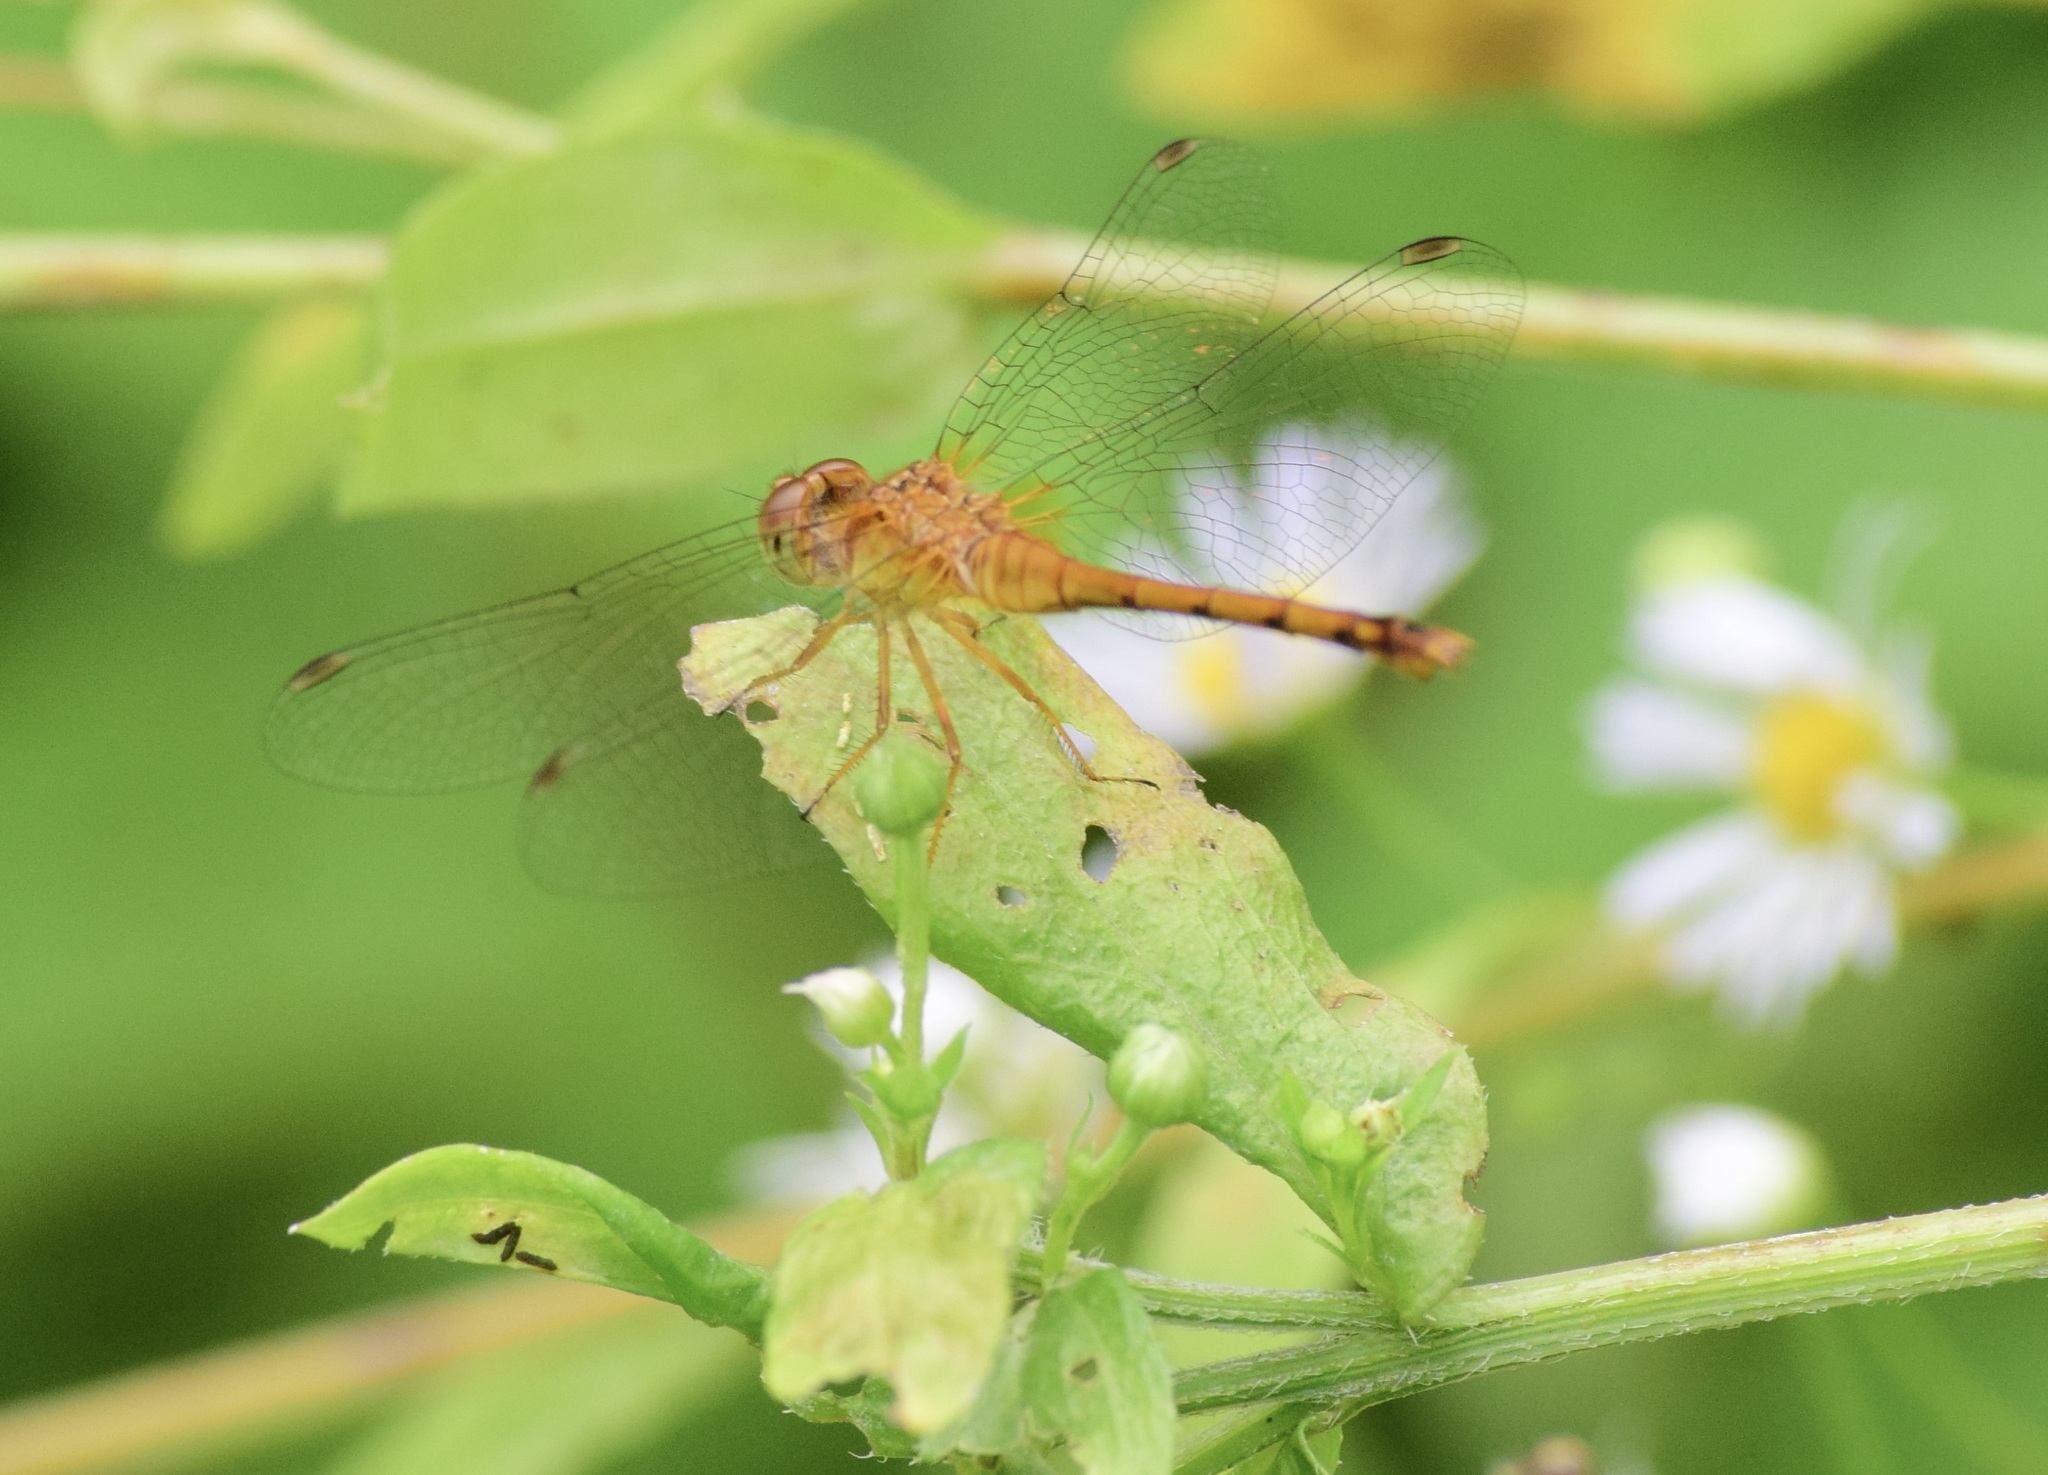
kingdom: Animalia
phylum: Arthropoda
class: Insecta
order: Odonata
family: Libellulidae
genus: Sympetrum
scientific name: Sympetrum vicinum
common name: Autumn meadowhawk
